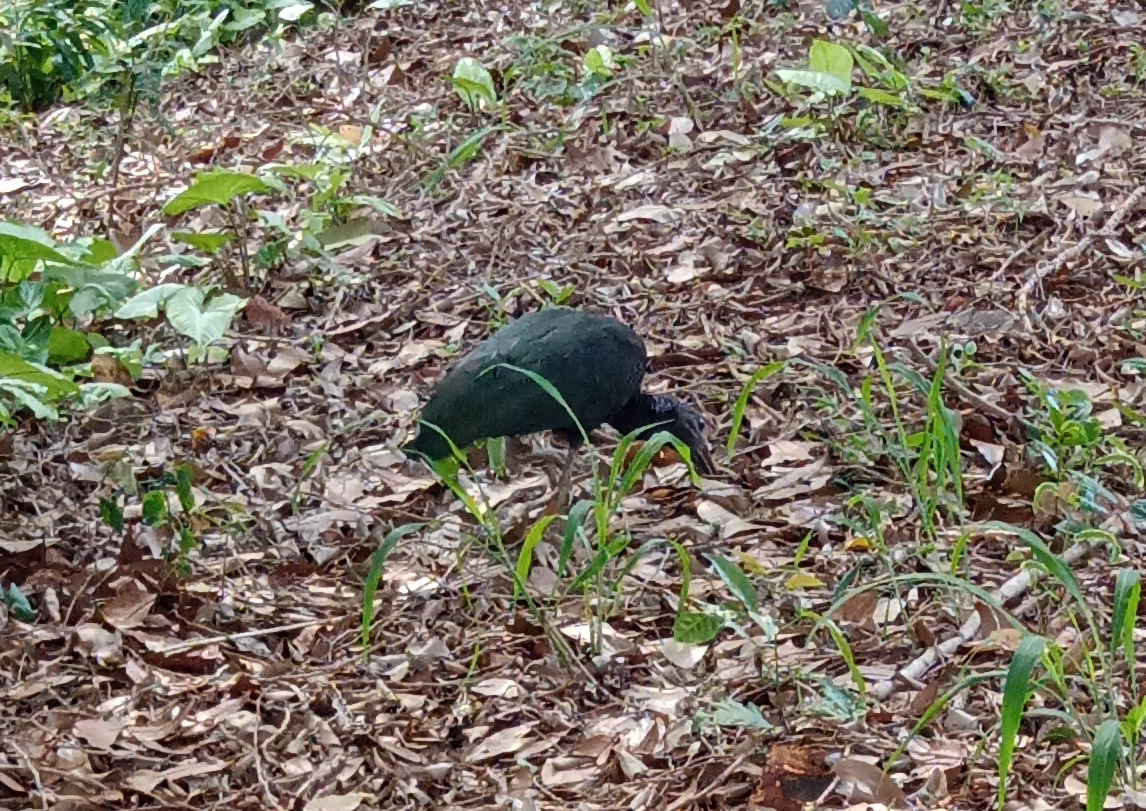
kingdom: Animalia
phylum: Chordata
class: Aves
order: Pelecaniformes
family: Threskiornithidae
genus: Mesembrinibis
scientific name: Mesembrinibis cayennensis
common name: Green ibis
